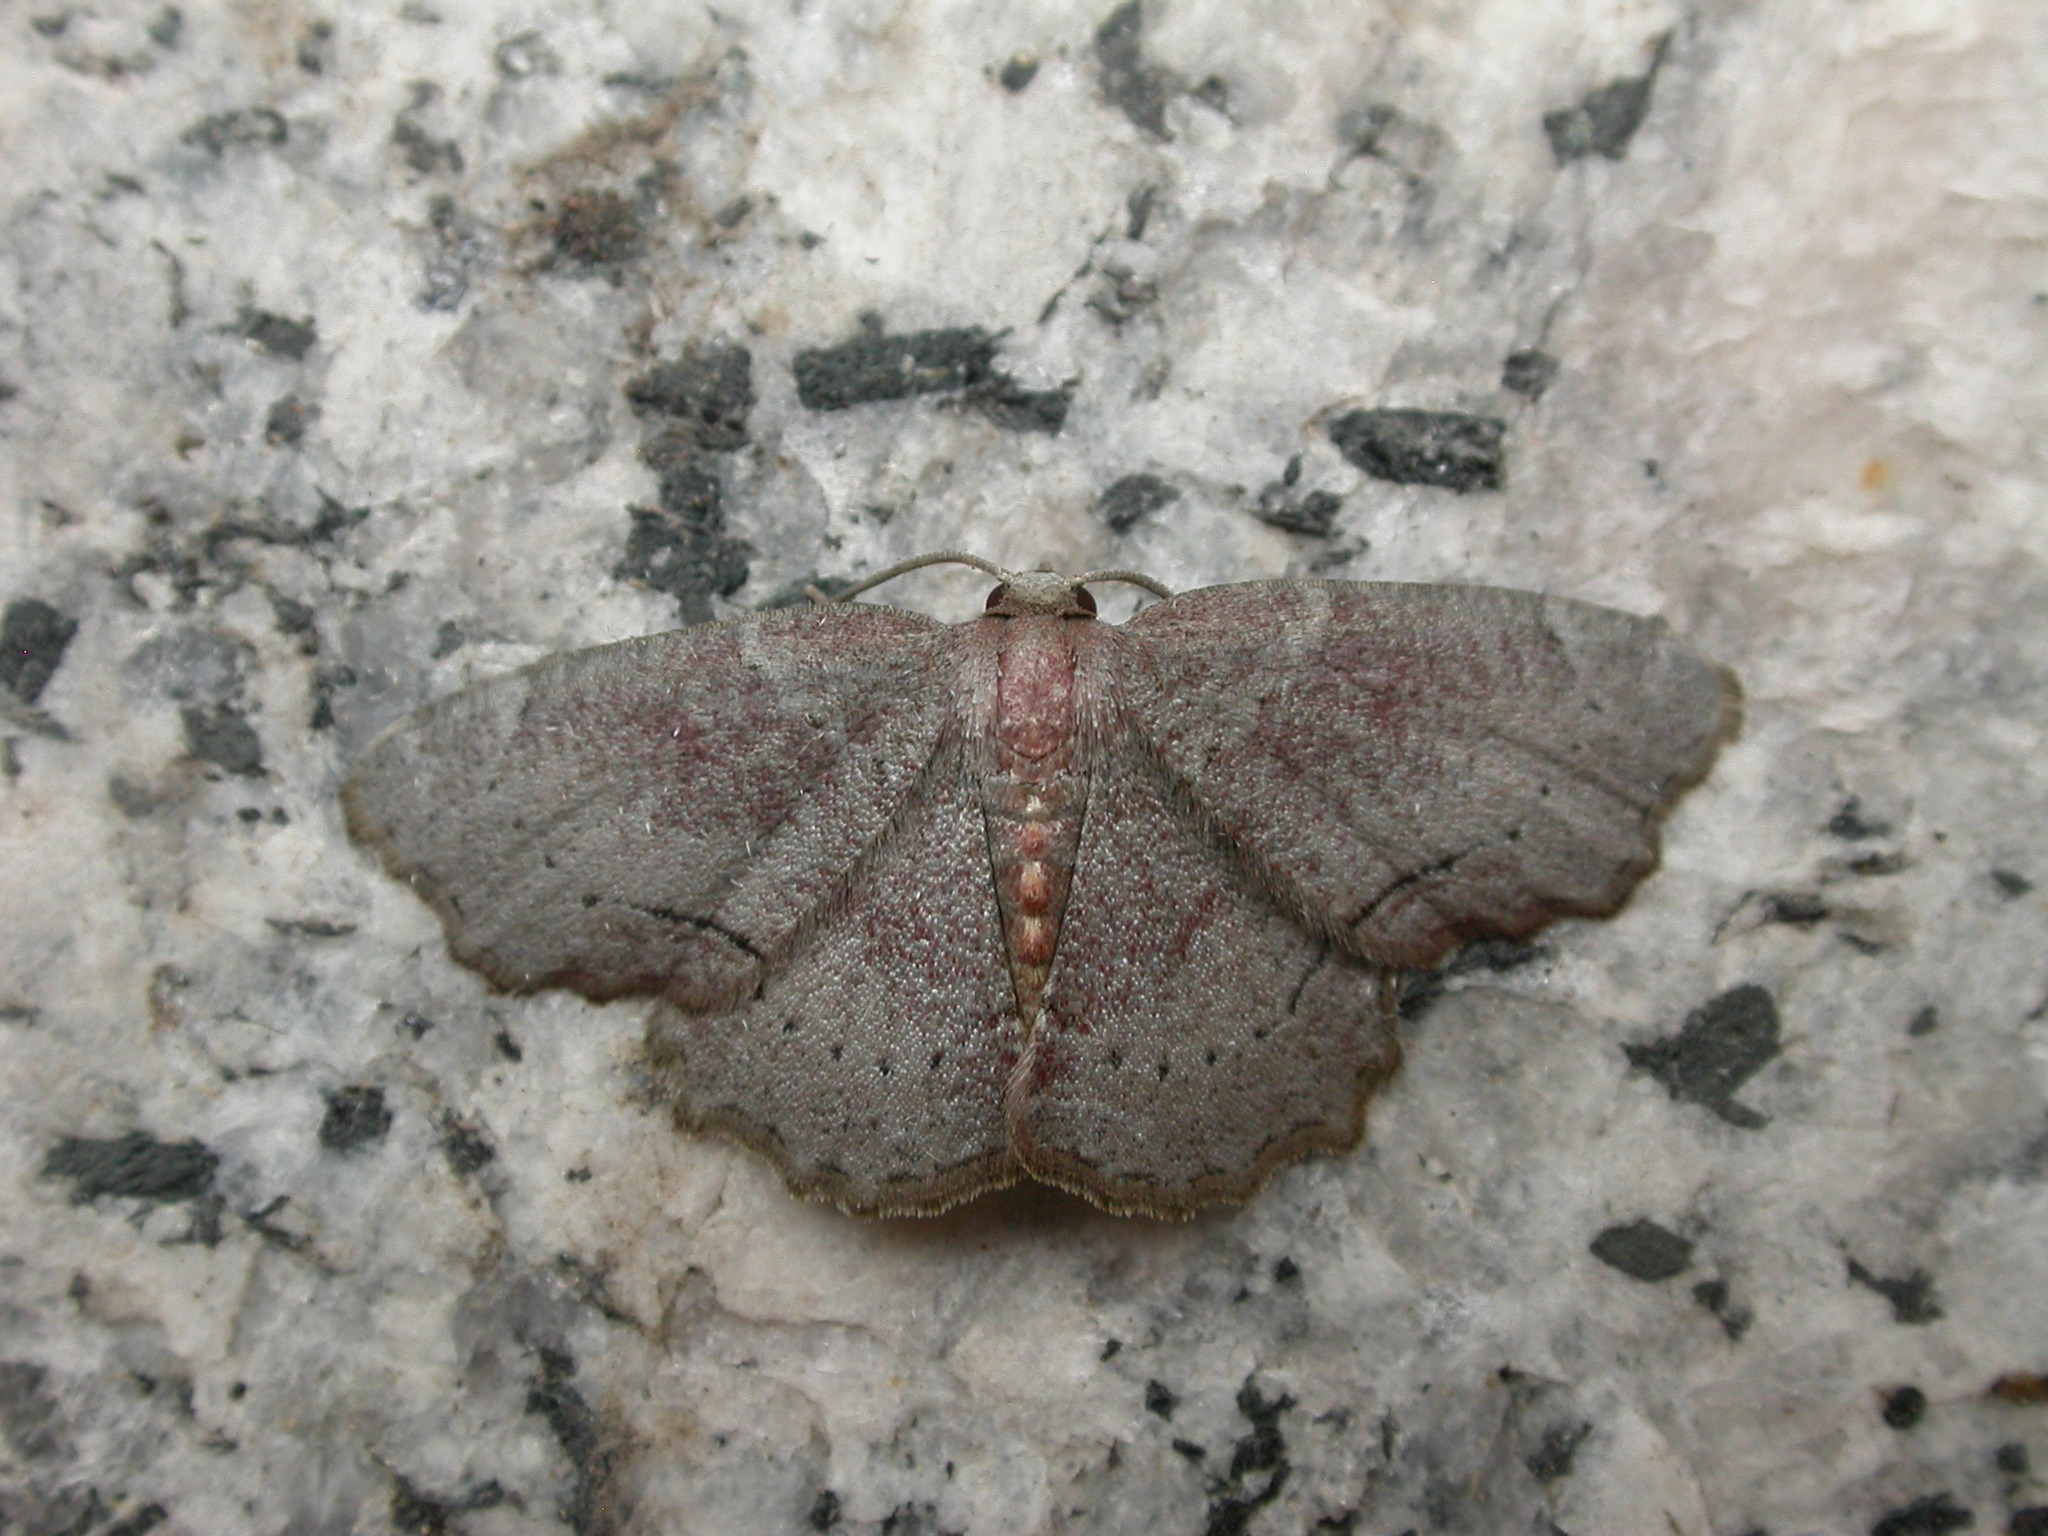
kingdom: Animalia
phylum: Arthropoda
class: Insecta
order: Lepidoptera
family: Geometridae
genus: Xenozancla
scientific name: Xenozancla versicolor
